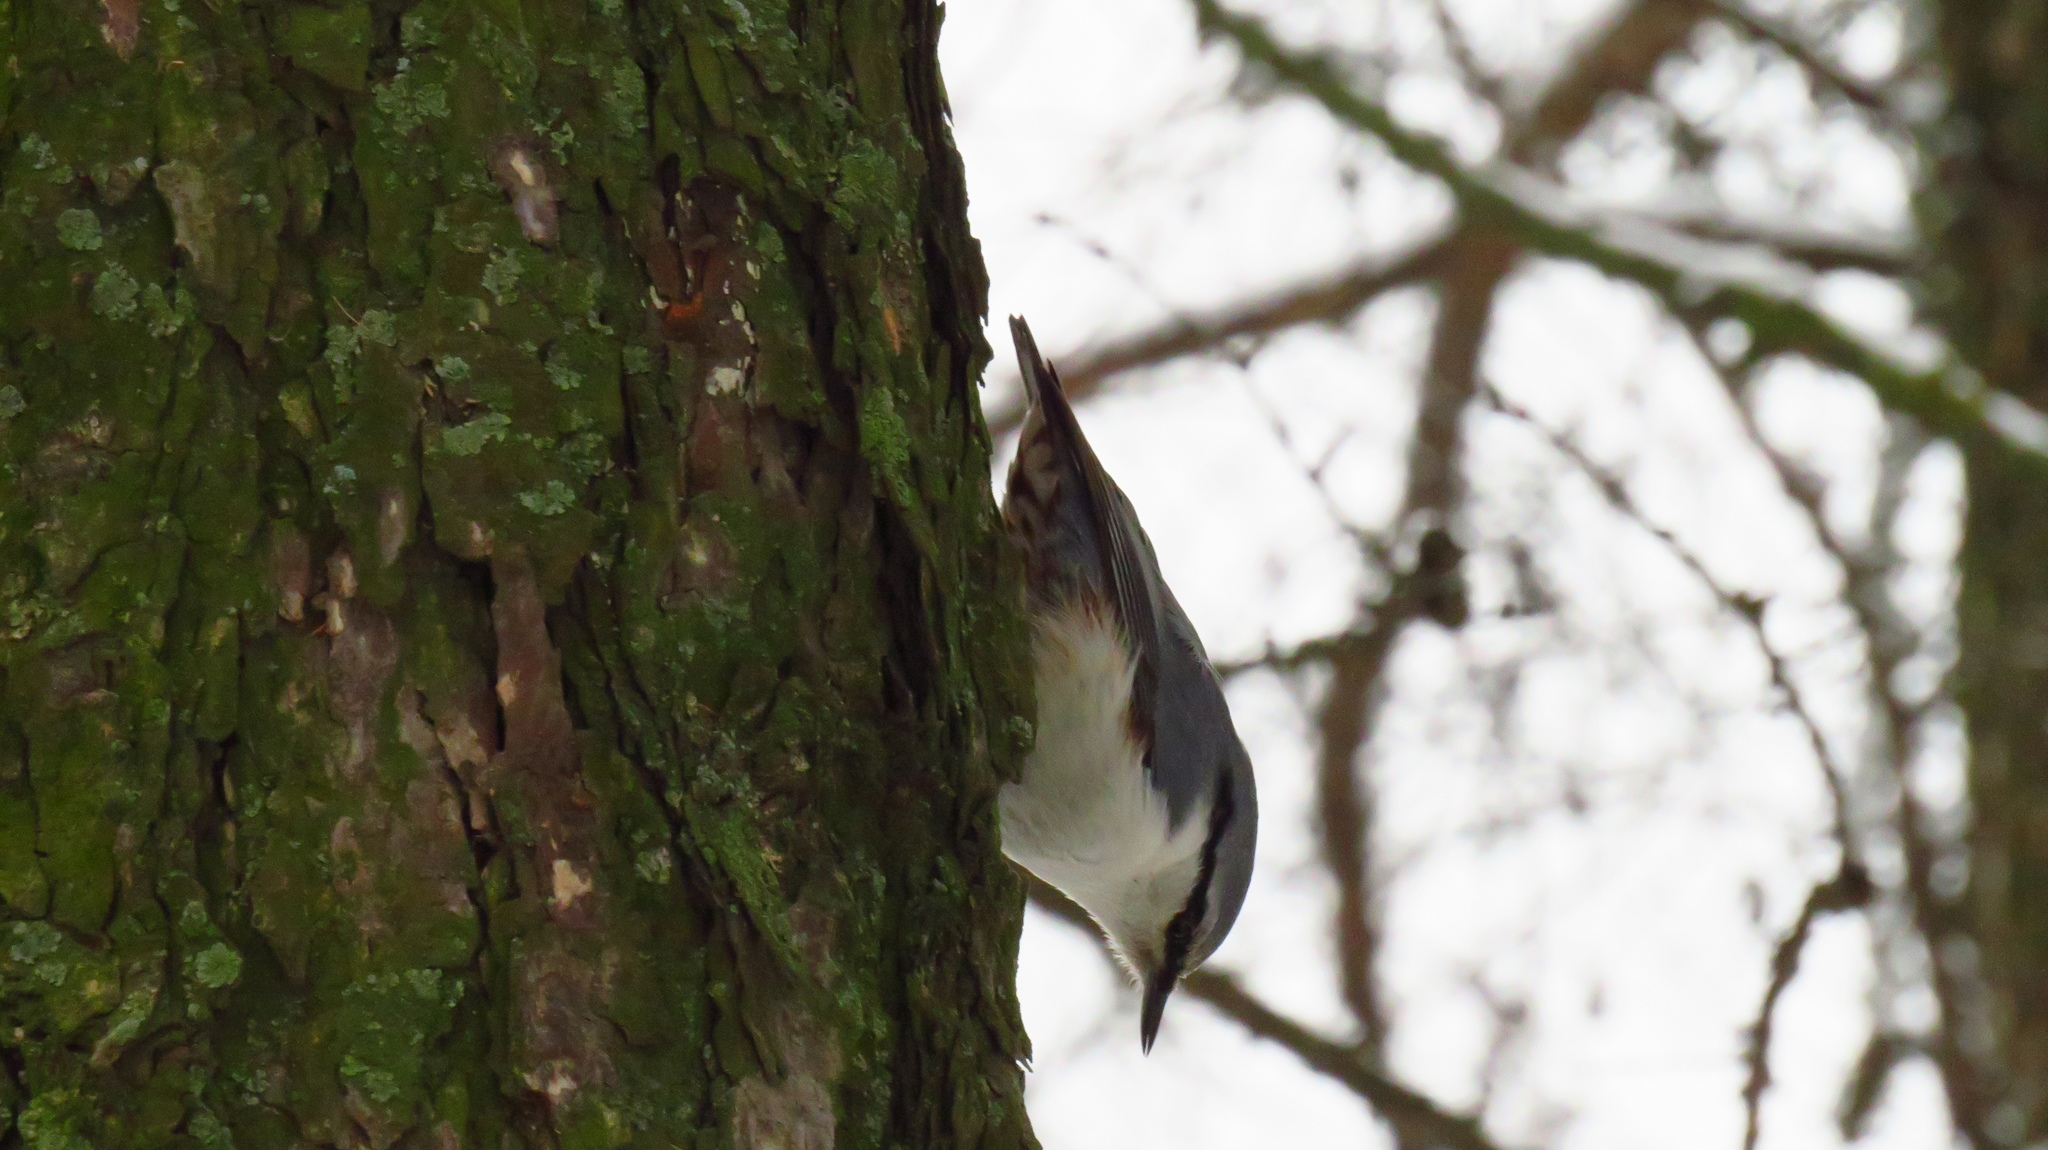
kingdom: Animalia
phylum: Chordata
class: Aves
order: Passeriformes
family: Sittidae
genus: Sitta
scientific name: Sitta europaea
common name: Eurasian nuthatch
